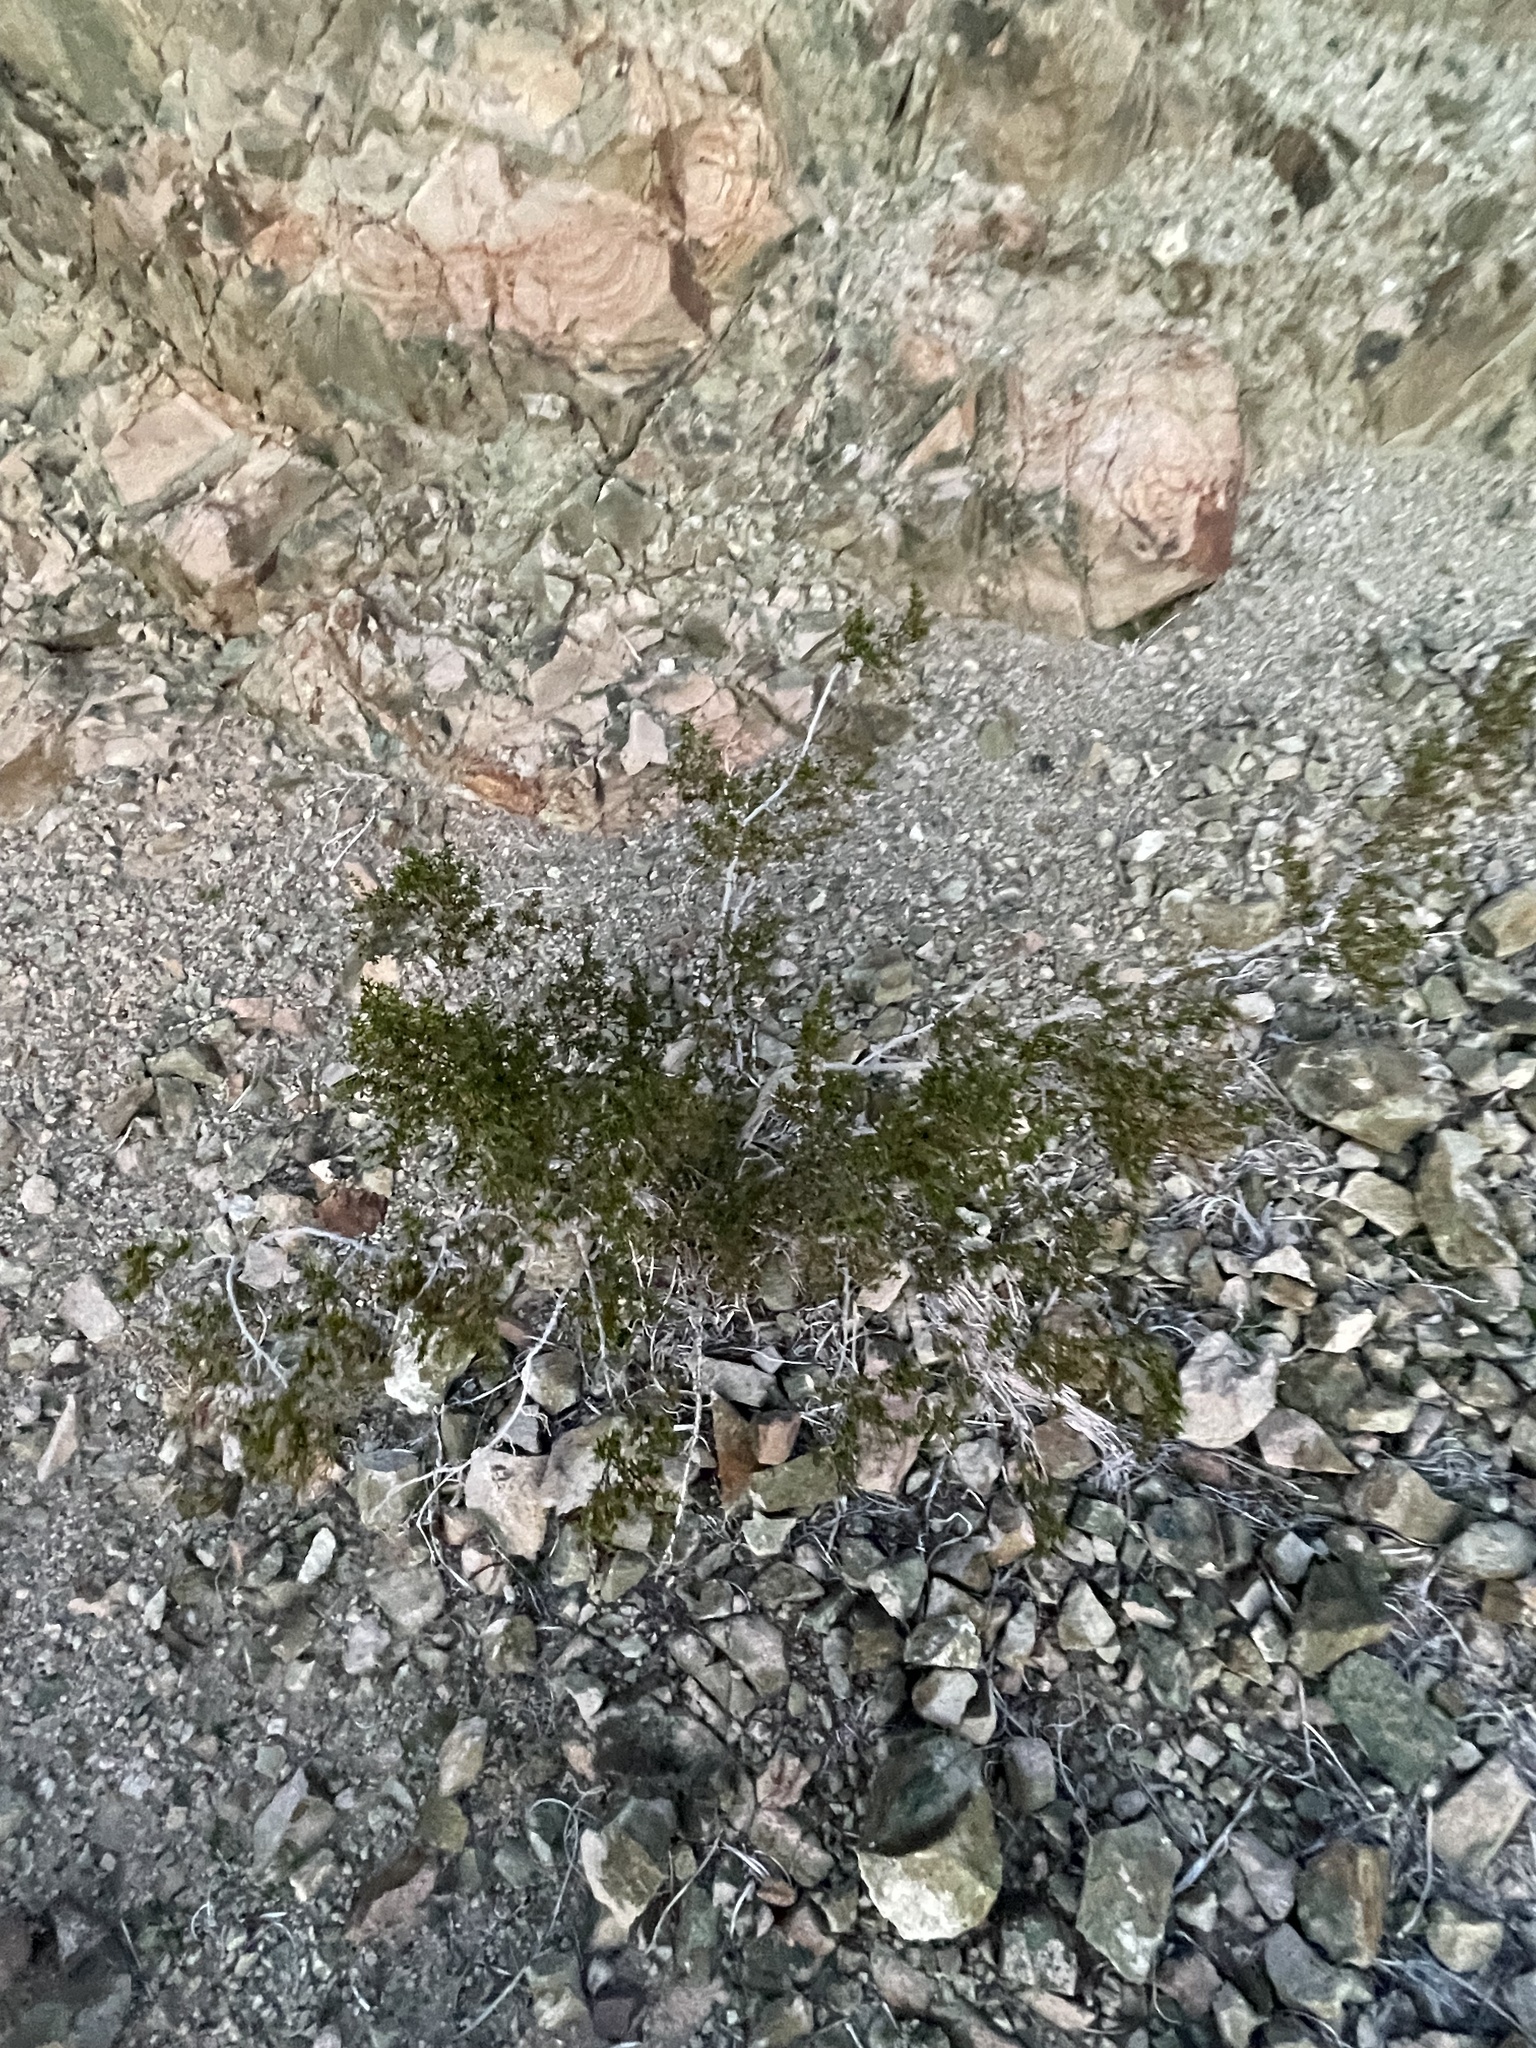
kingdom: Plantae
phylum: Tracheophyta
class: Magnoliopsida
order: Zygophyllales
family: Zygophyllaceae
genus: Larrea
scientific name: Larrea tridentata
